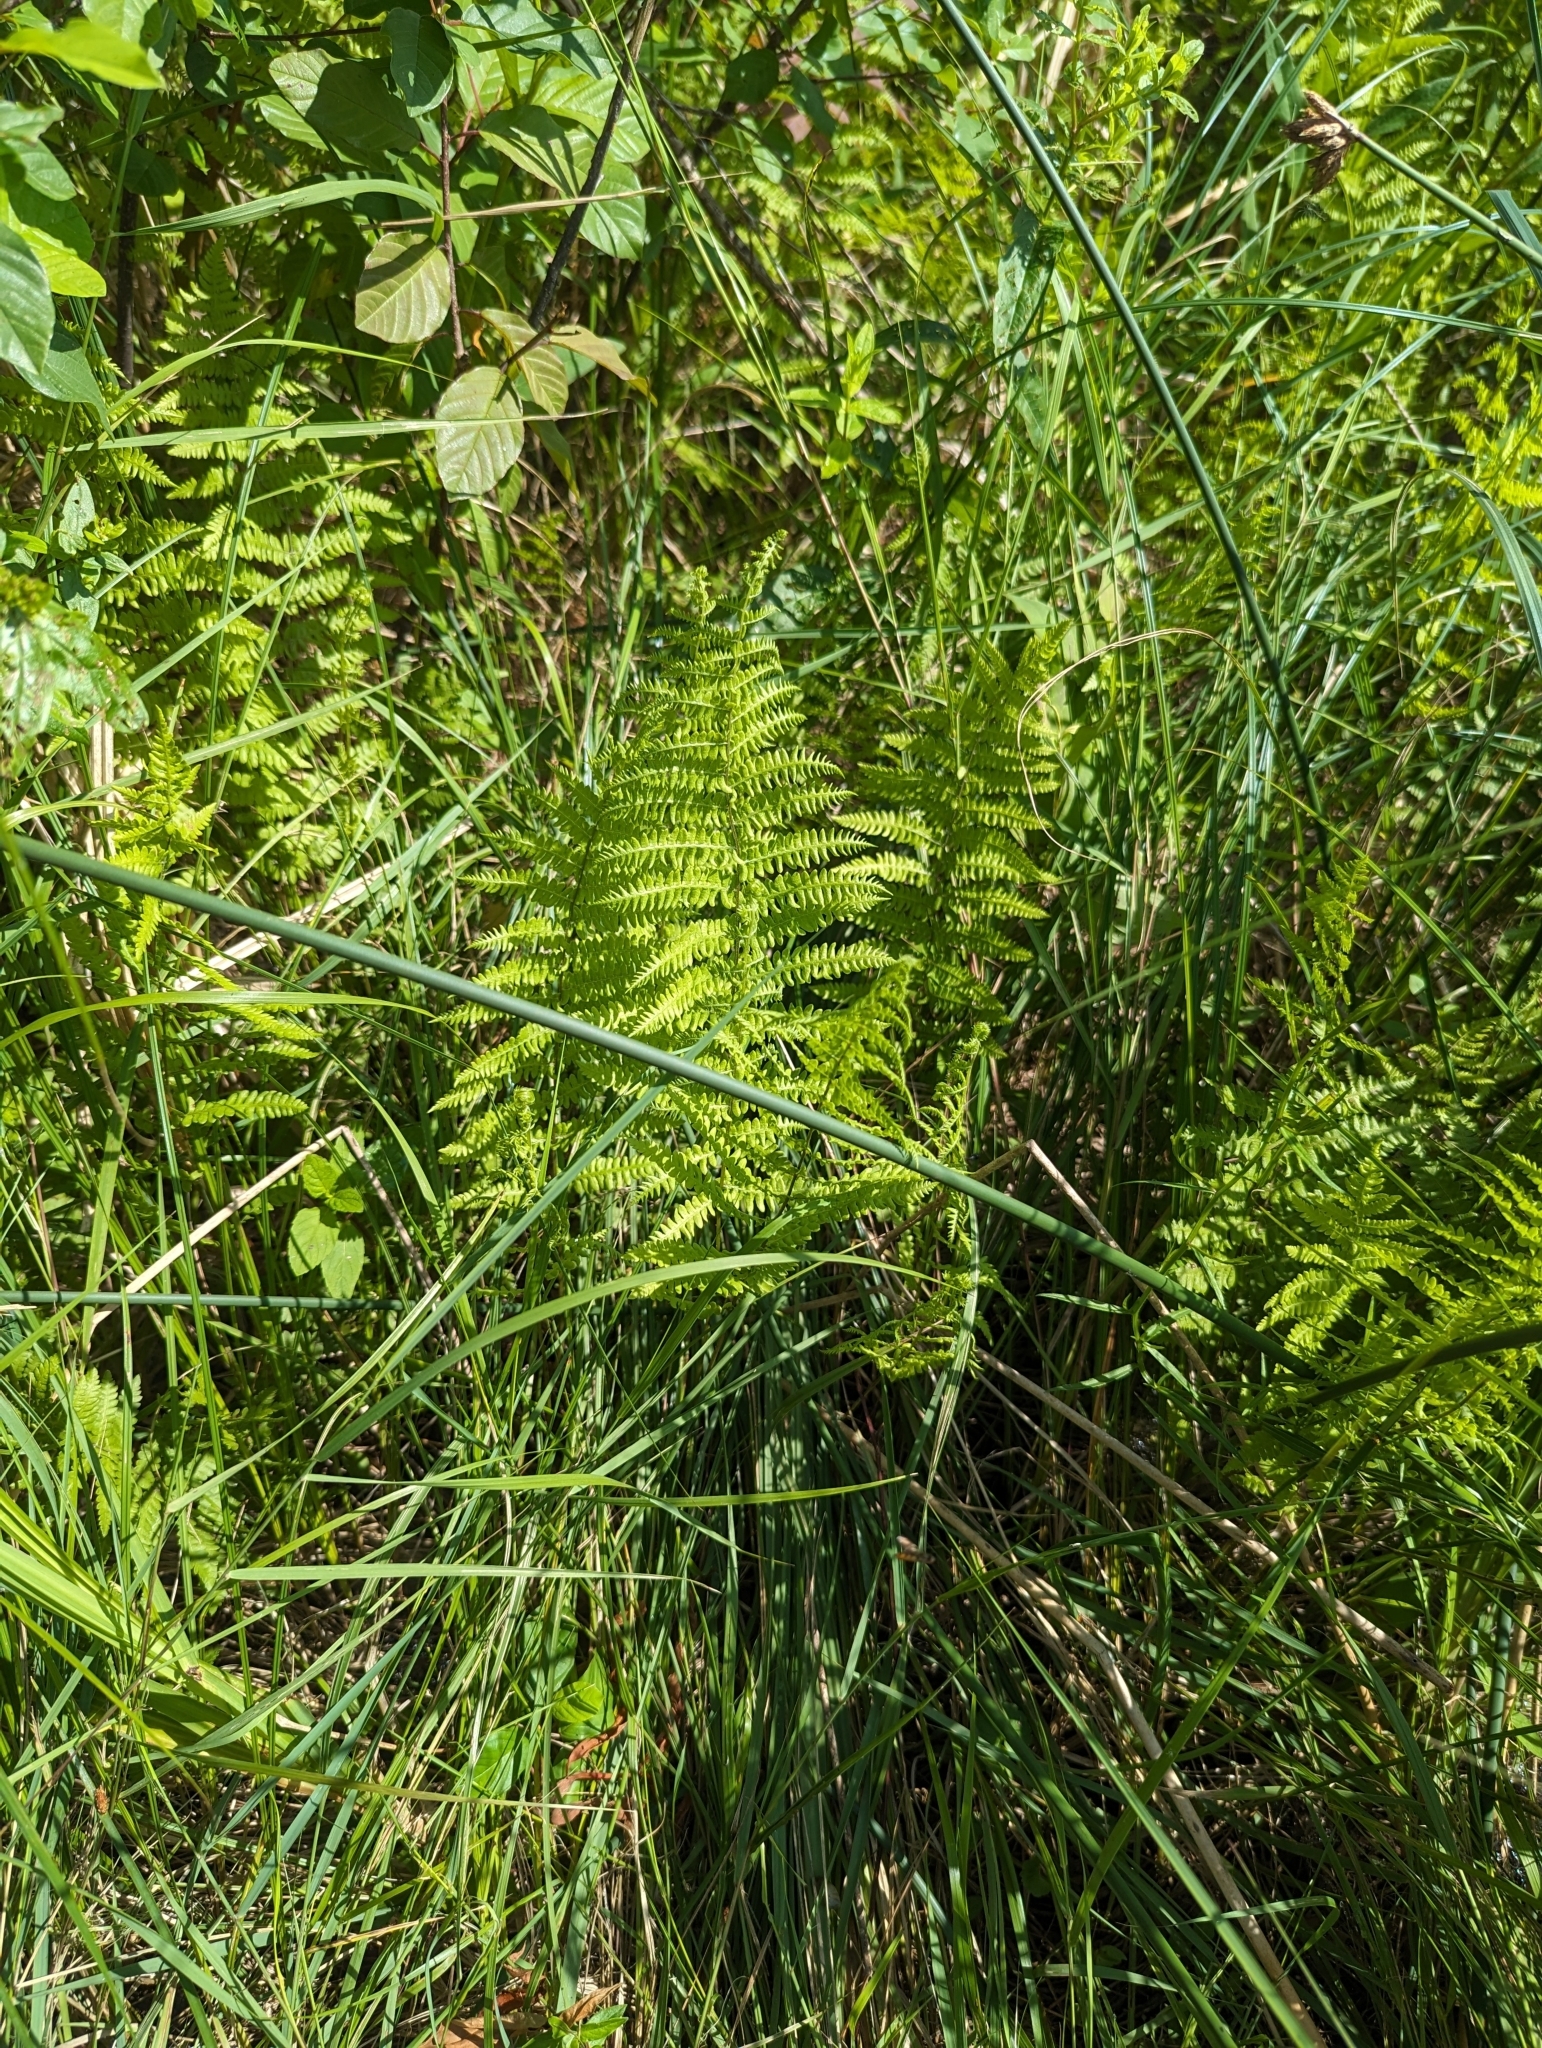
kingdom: Plantae
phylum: Tracheophyta
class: Polypodiopsida
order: Polypodiales
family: Thelypteridaceae
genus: Thelypteris
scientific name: Thelypteris palustris
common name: Marsh fern
